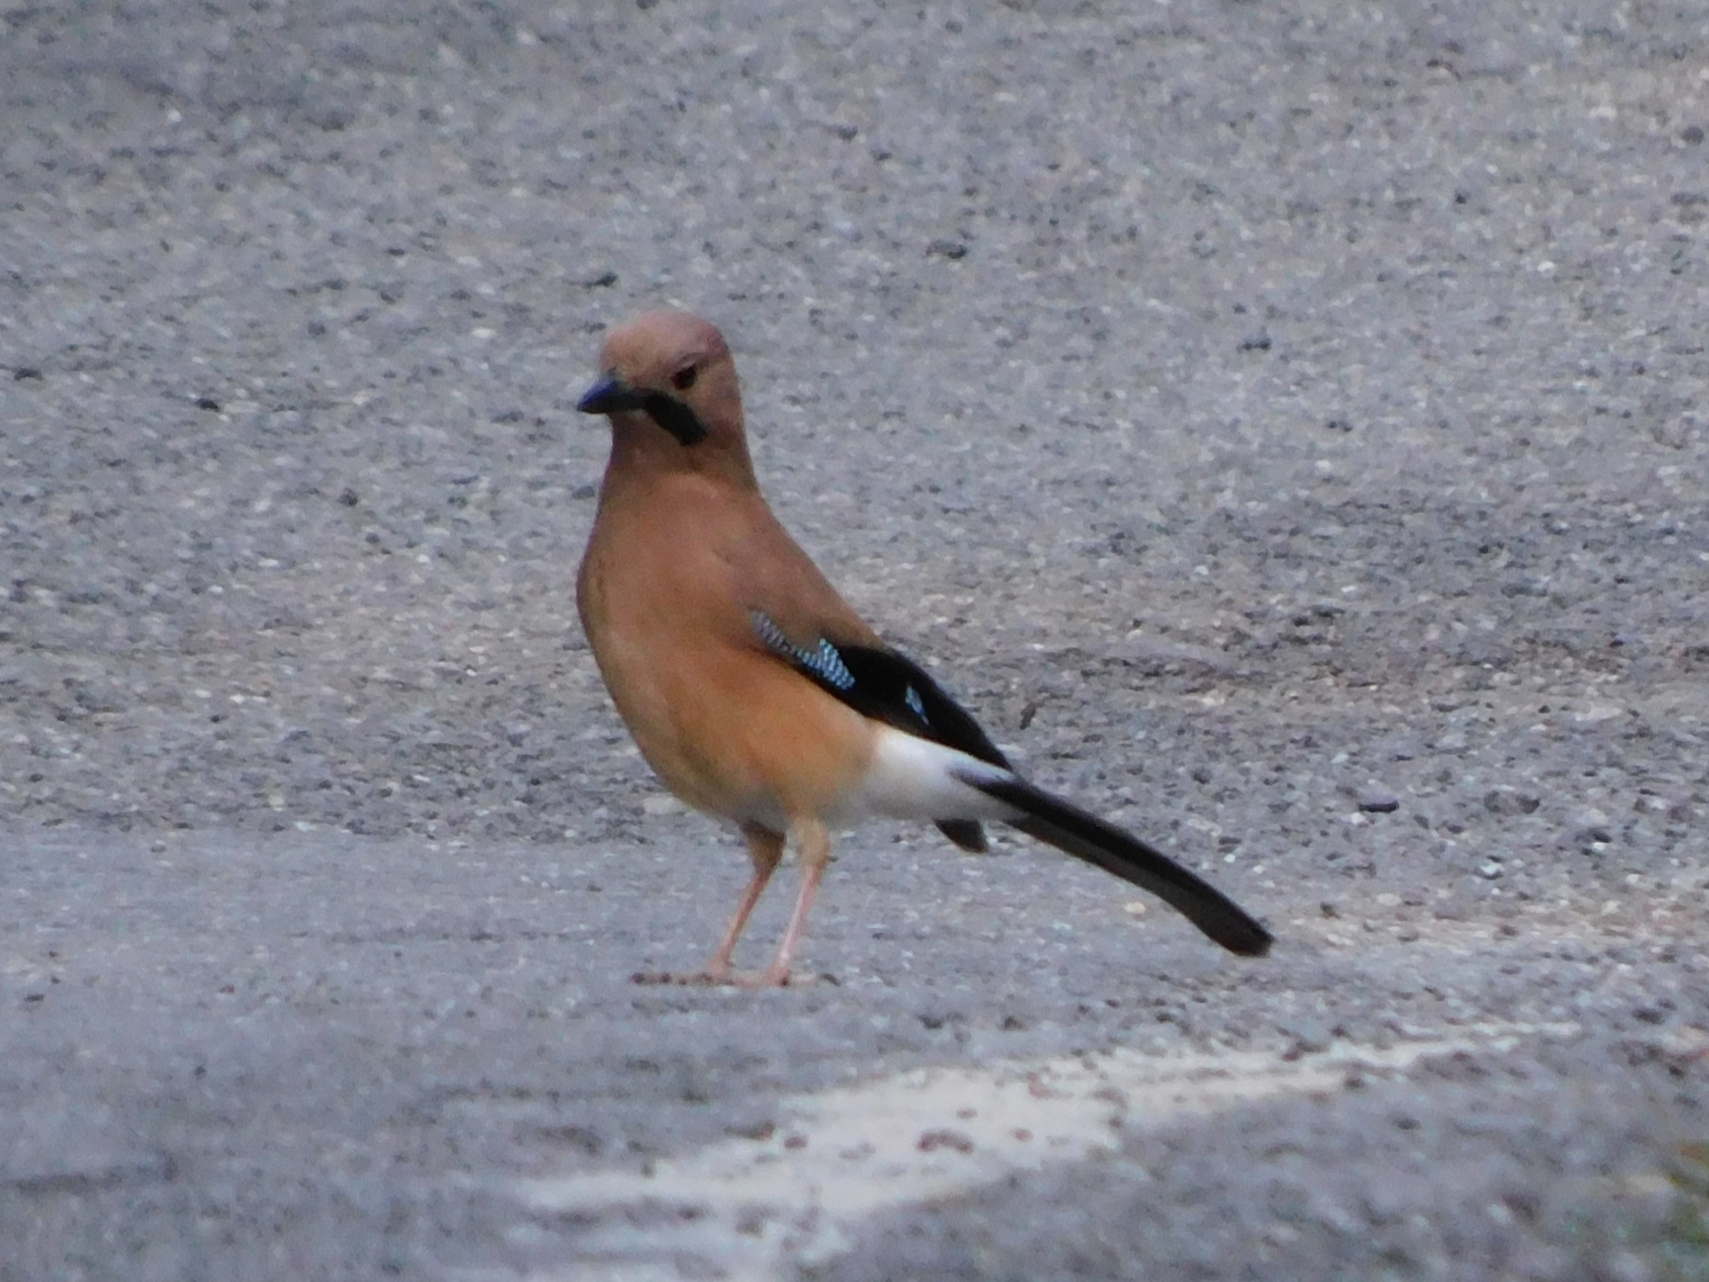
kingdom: Animalia
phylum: Chordata
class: Aves
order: Passeriformes
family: Corvidae
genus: Garrulus
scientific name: Garrulus glandarius
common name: Eurasian jay
